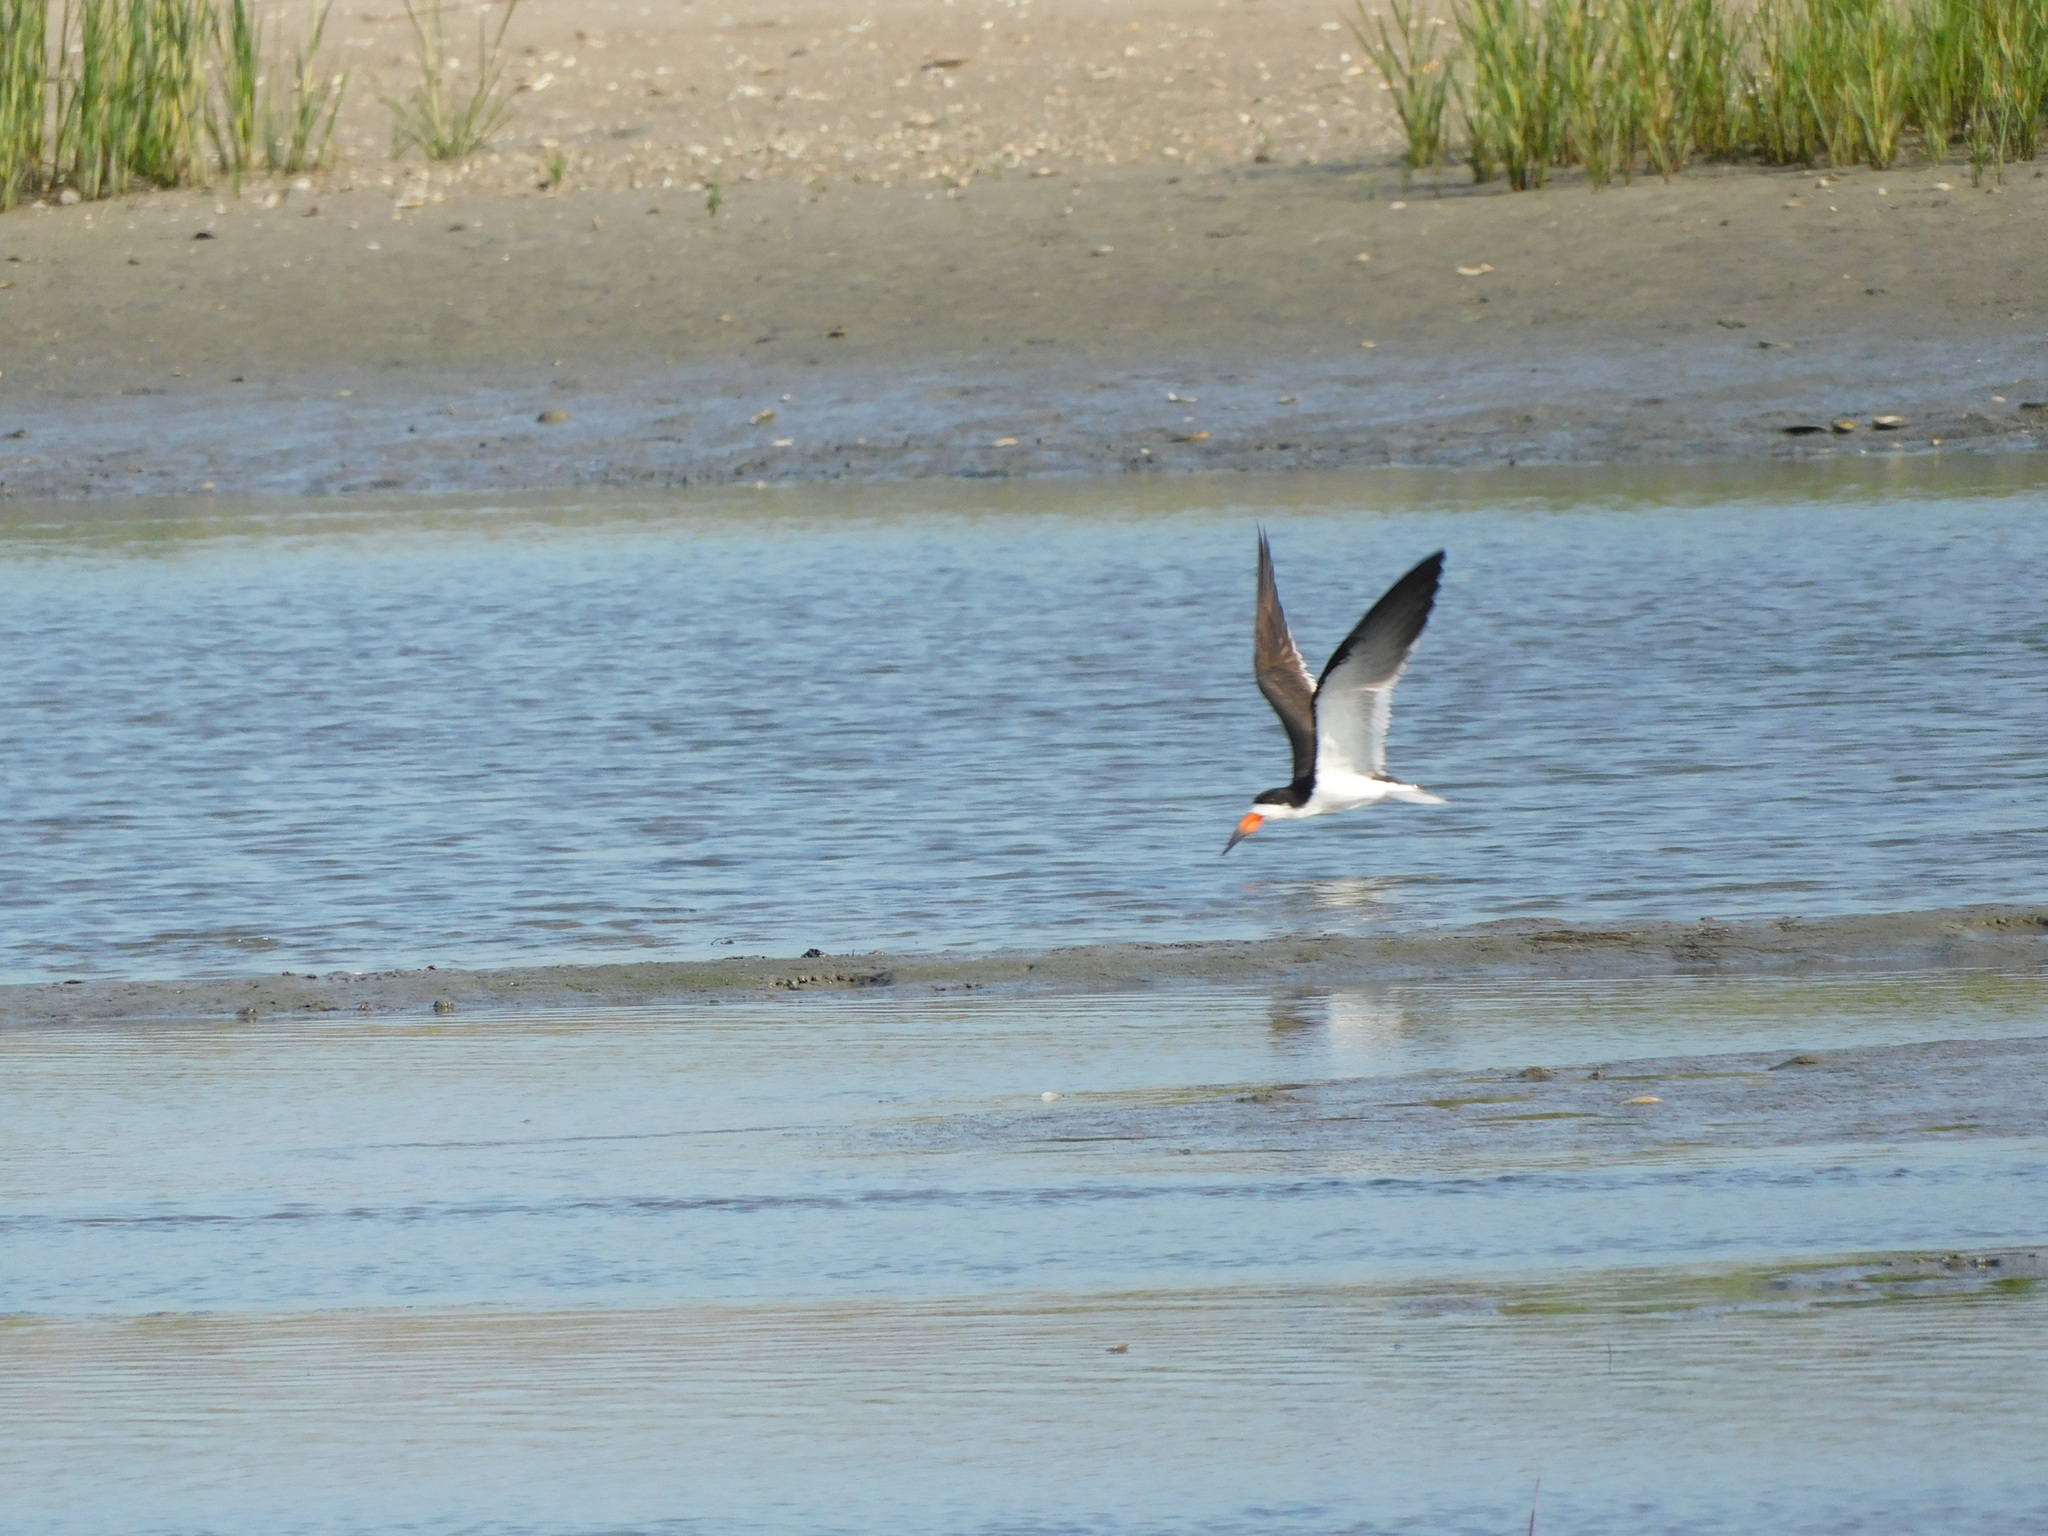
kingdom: Animalia
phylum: Chordata
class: Aves
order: Charadriiformes
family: Laridae
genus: Rynchops
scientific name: Rynchops niger
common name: Black skimmer
